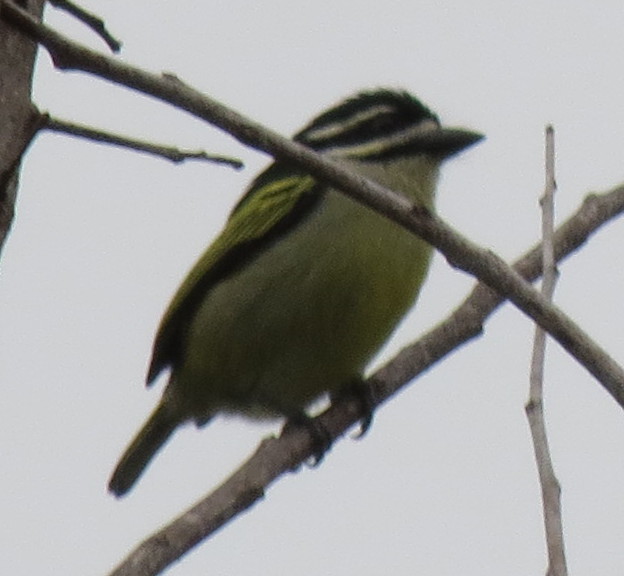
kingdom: Animalia
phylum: Chordata
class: Aves
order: Piciformes
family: Lybiidae
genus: Pogoniulus
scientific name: Pogoniulus bilineatus
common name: Yellow-rumped tinkerbird
